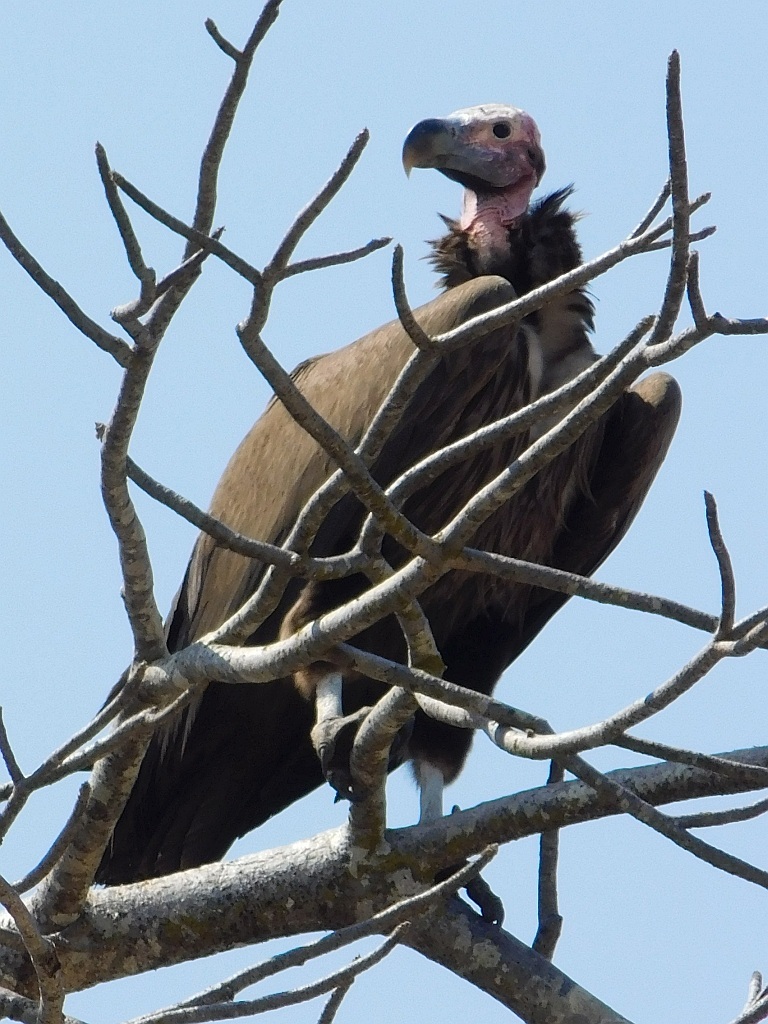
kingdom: Animalia
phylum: Chordata
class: Aves
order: Accipitriformes
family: Accipitridae
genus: Torgos
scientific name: Torgos tracheliotos
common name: Lappet-faced vulture
